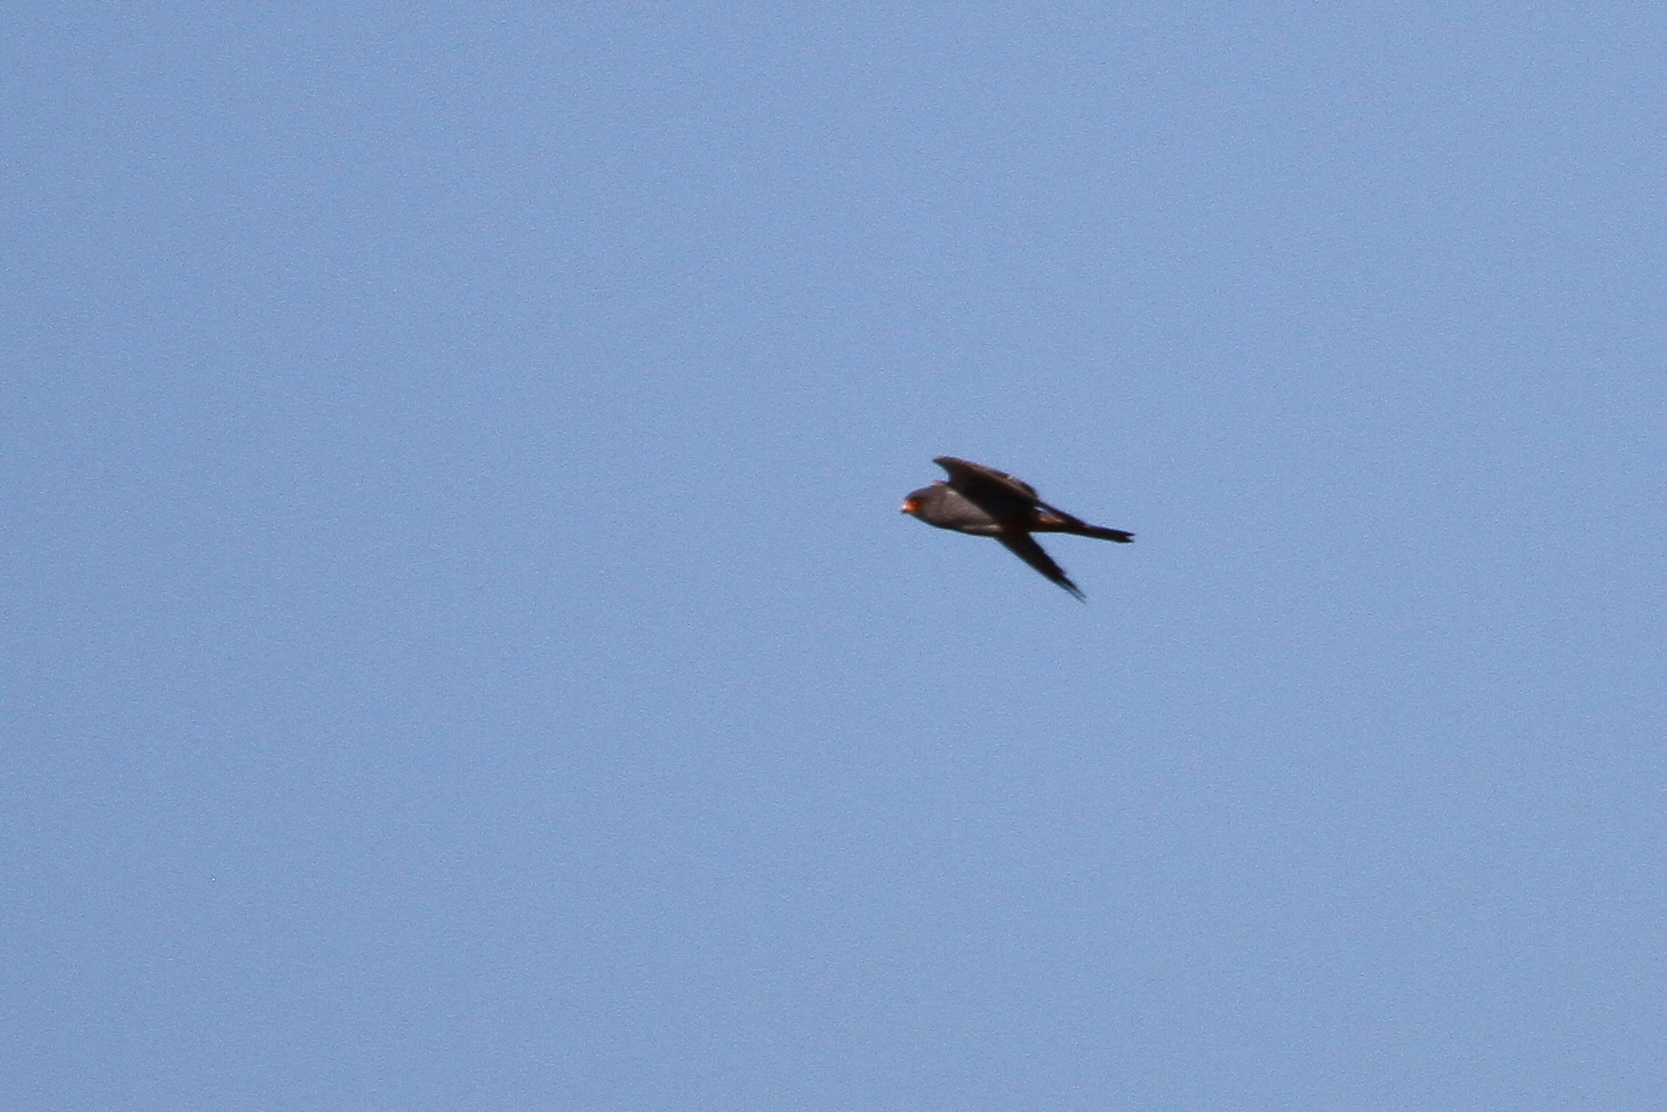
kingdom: Animalia
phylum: Chordata
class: Aves
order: Falconiformes
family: Falconidae
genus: Falco
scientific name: Falco vespertinus
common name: Red-footed falcon
